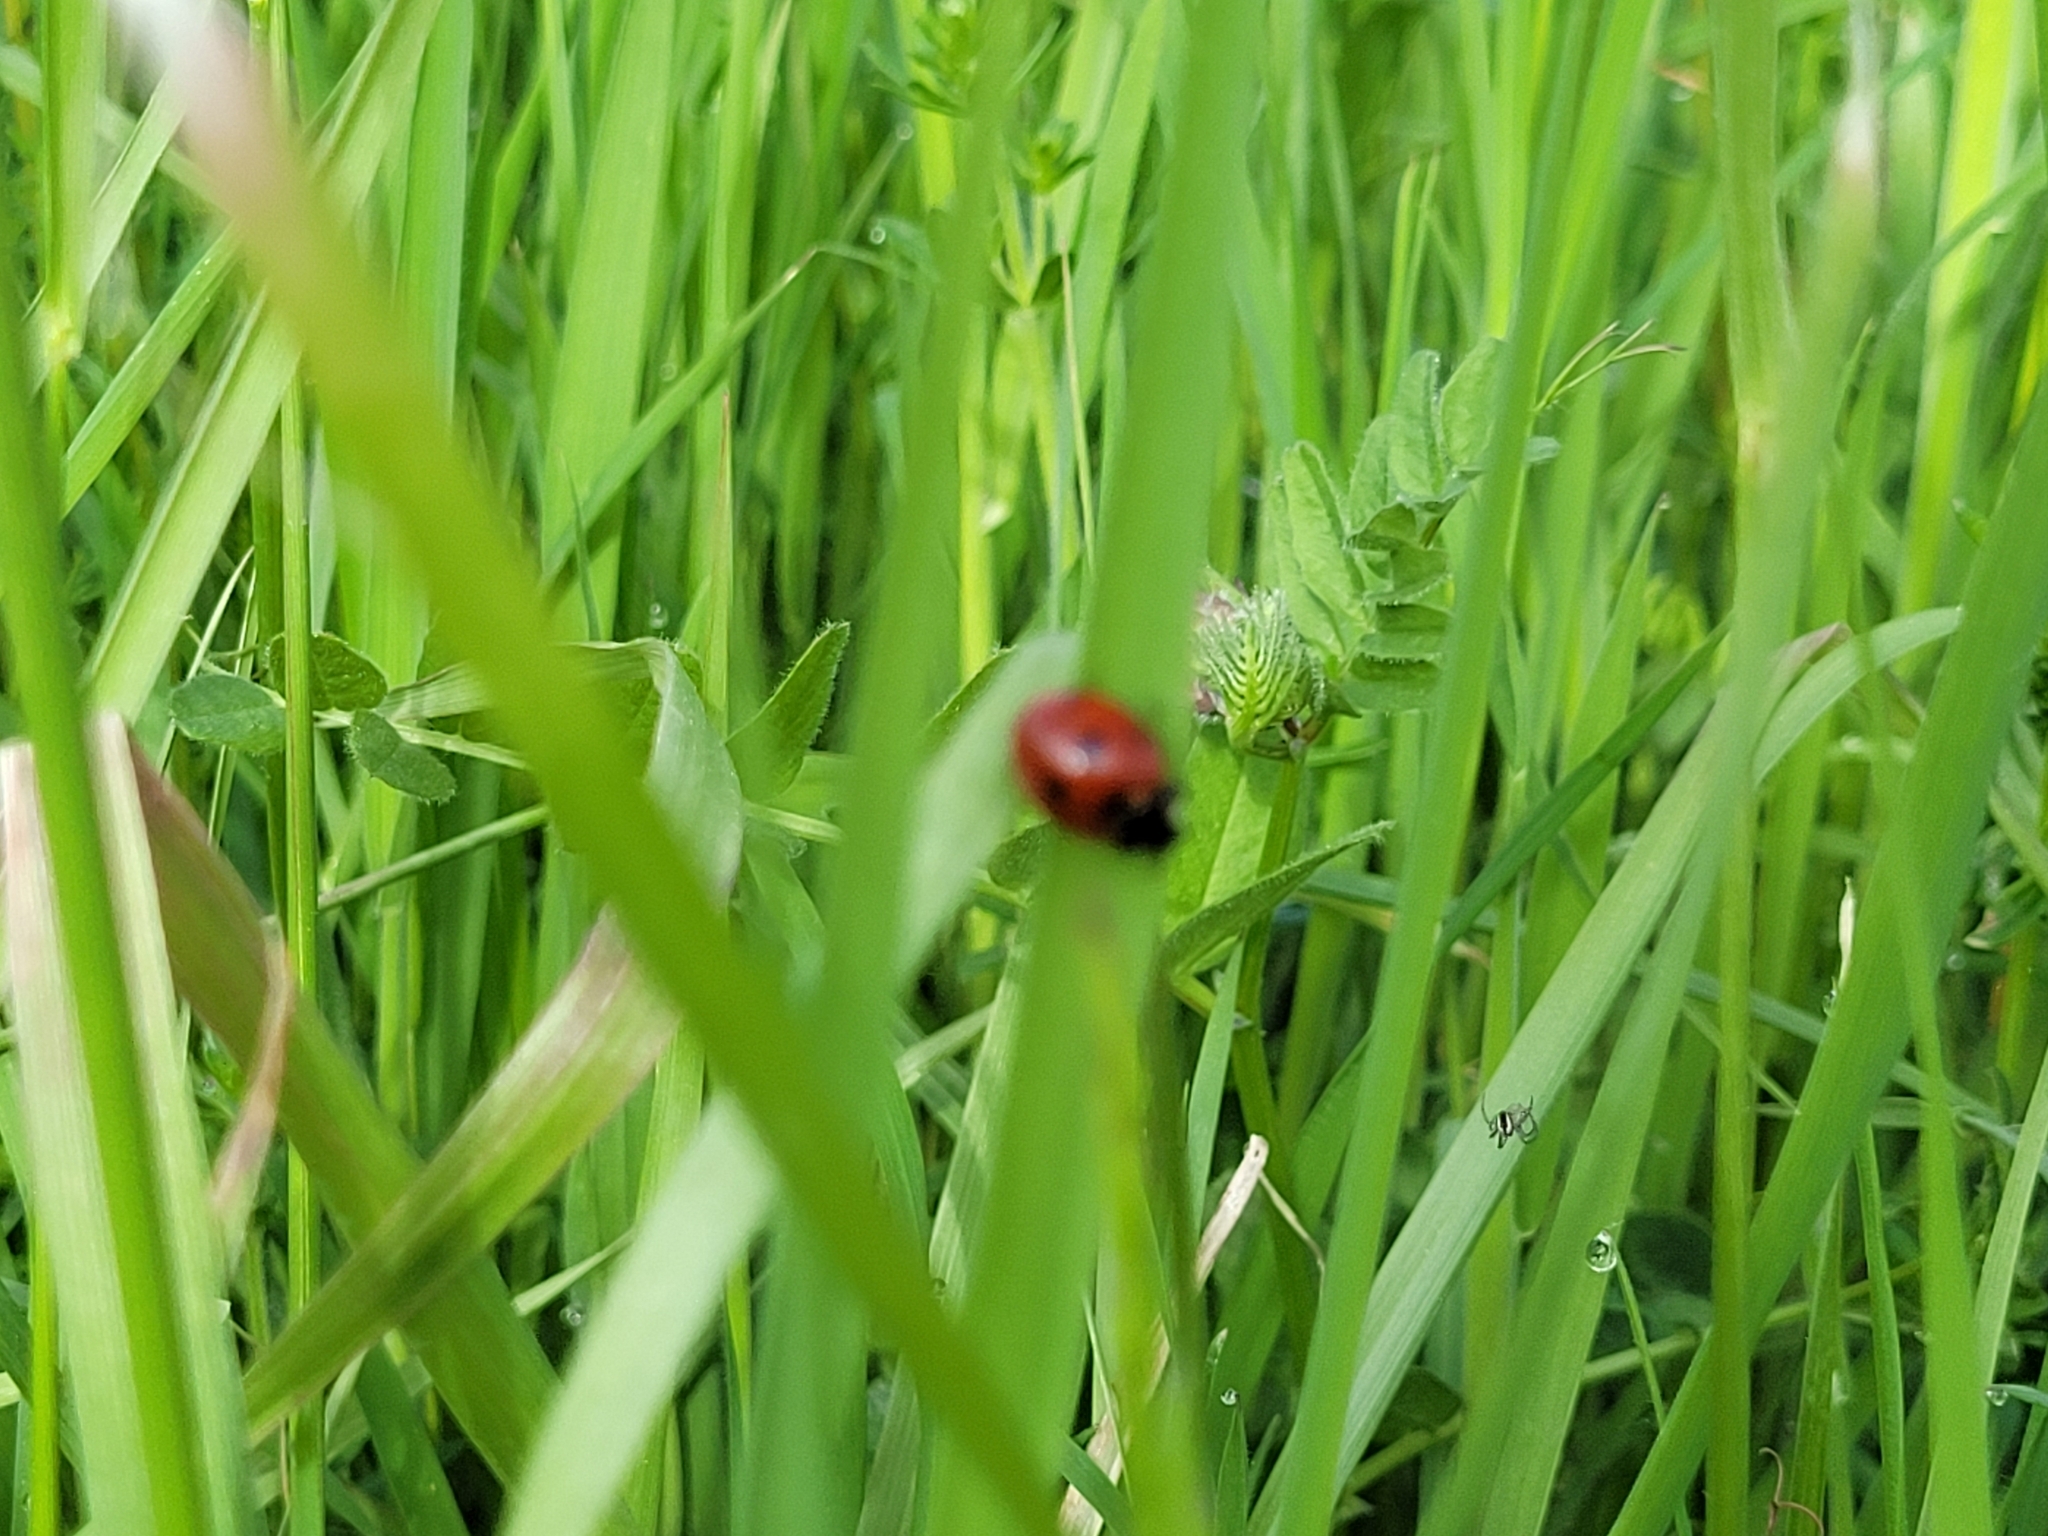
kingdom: Animalia
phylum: Arthropoda
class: Insecta
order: Coleoptera
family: Coccinellidae
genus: Coccinella
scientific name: Coccinella septempunctata
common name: Sevenspotted lady beetle
